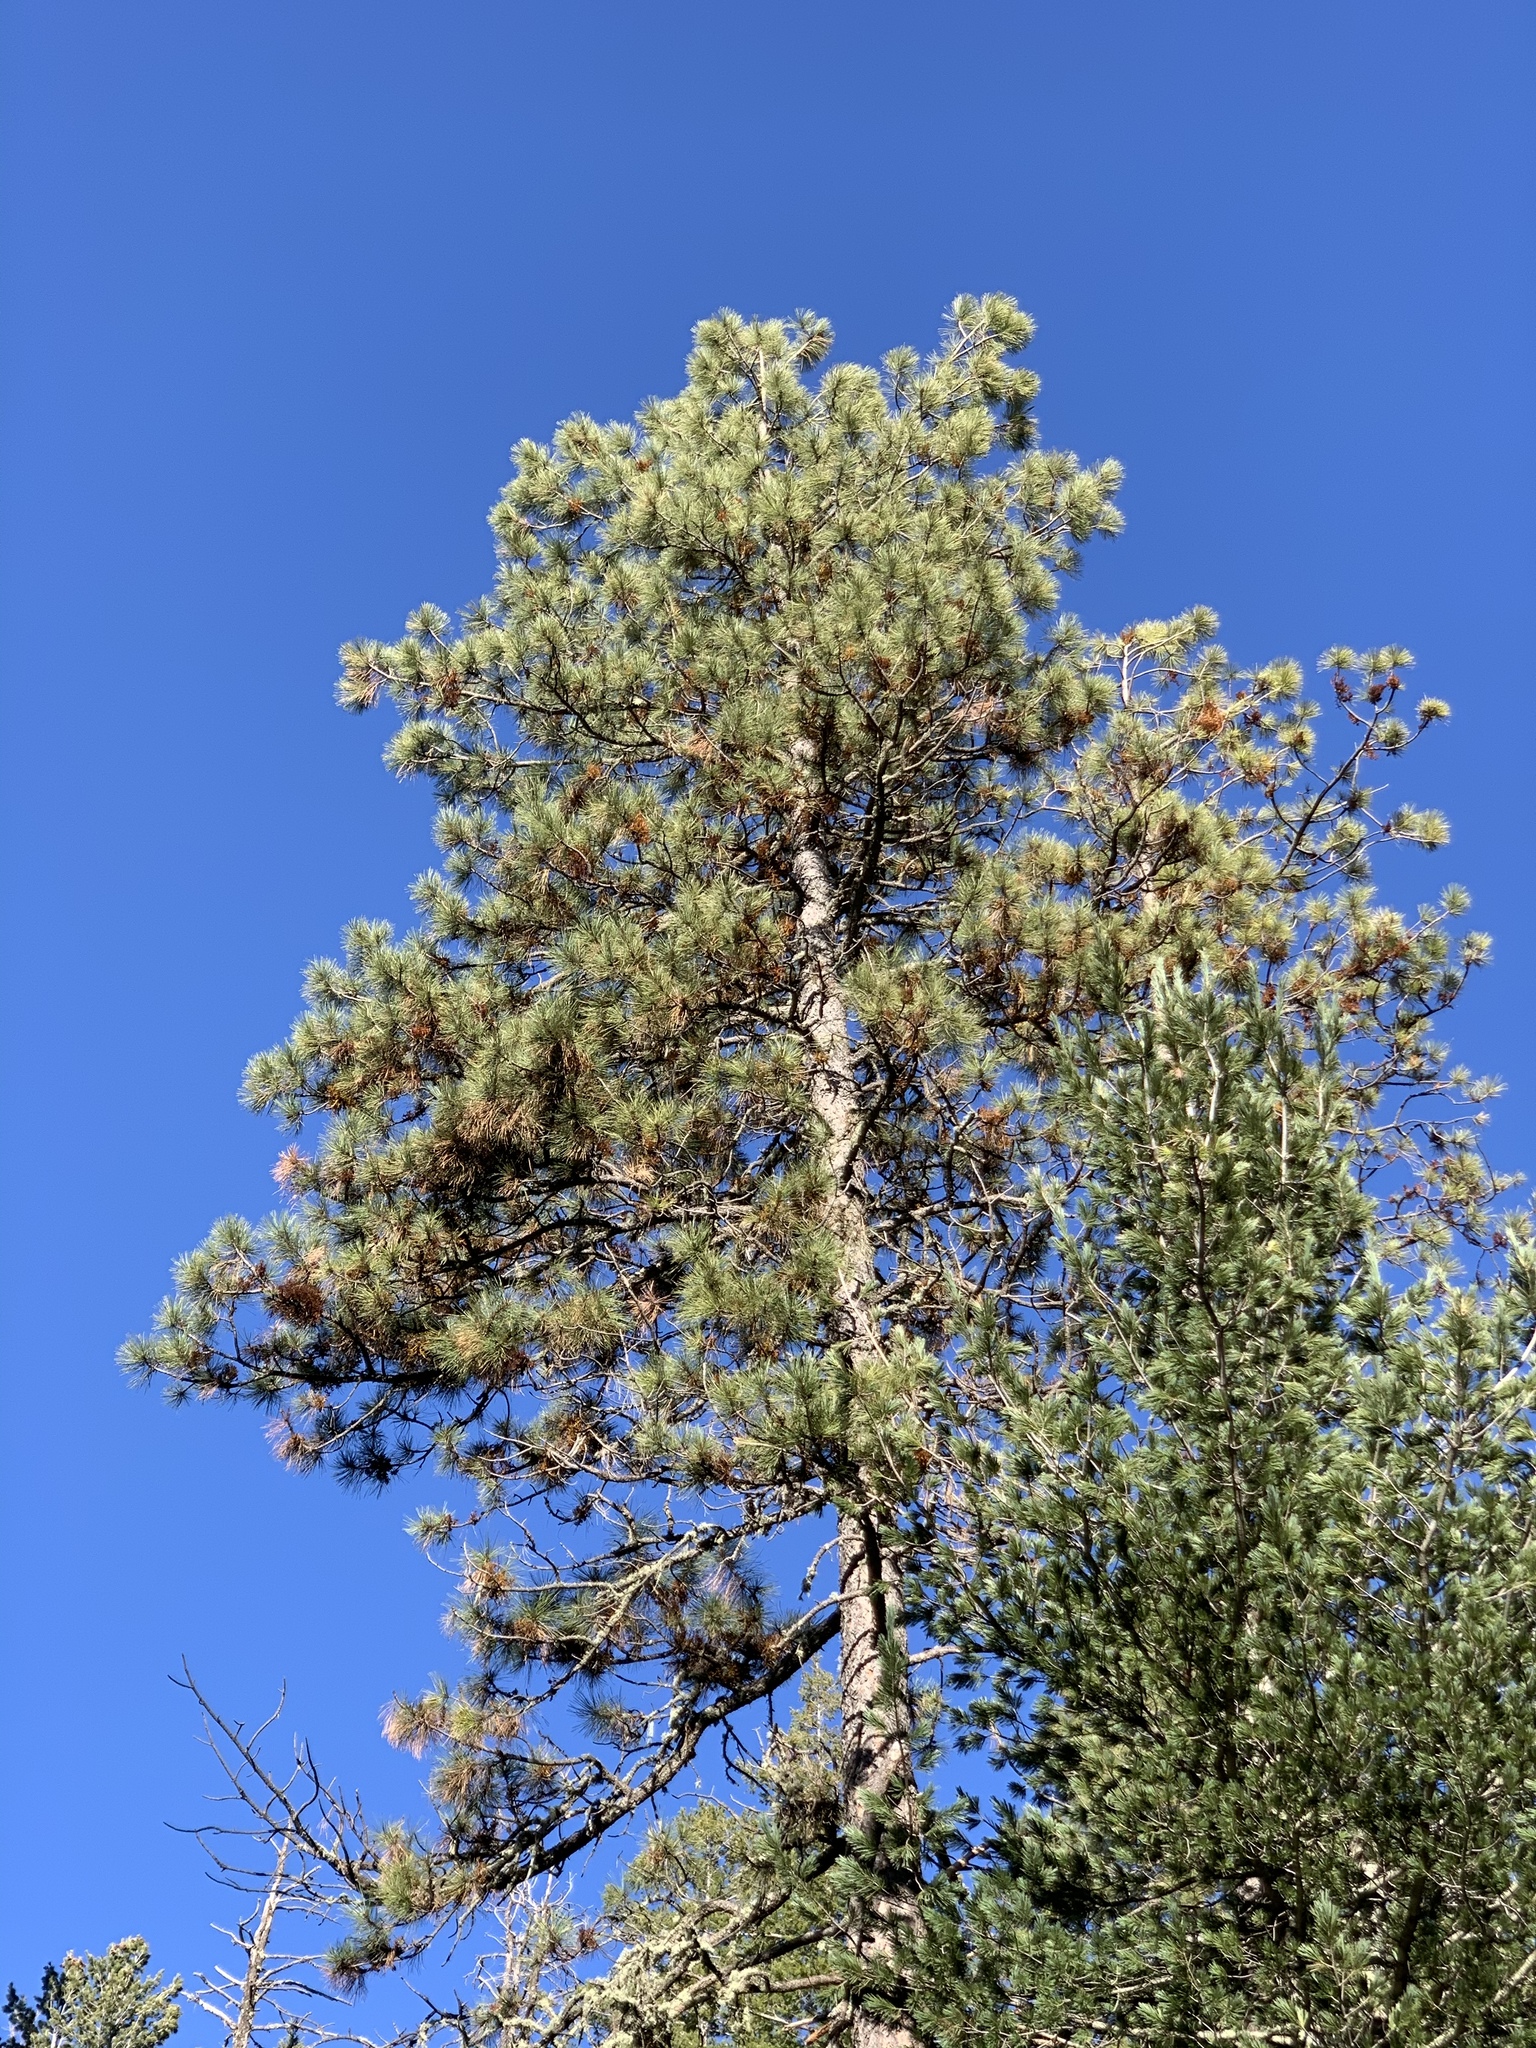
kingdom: Plantae
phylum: Tracheophyta
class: Pinopsida
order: Pinales
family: Pinaceae
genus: Pinus
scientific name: Pinus ponderosa
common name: Western yellow-pine
